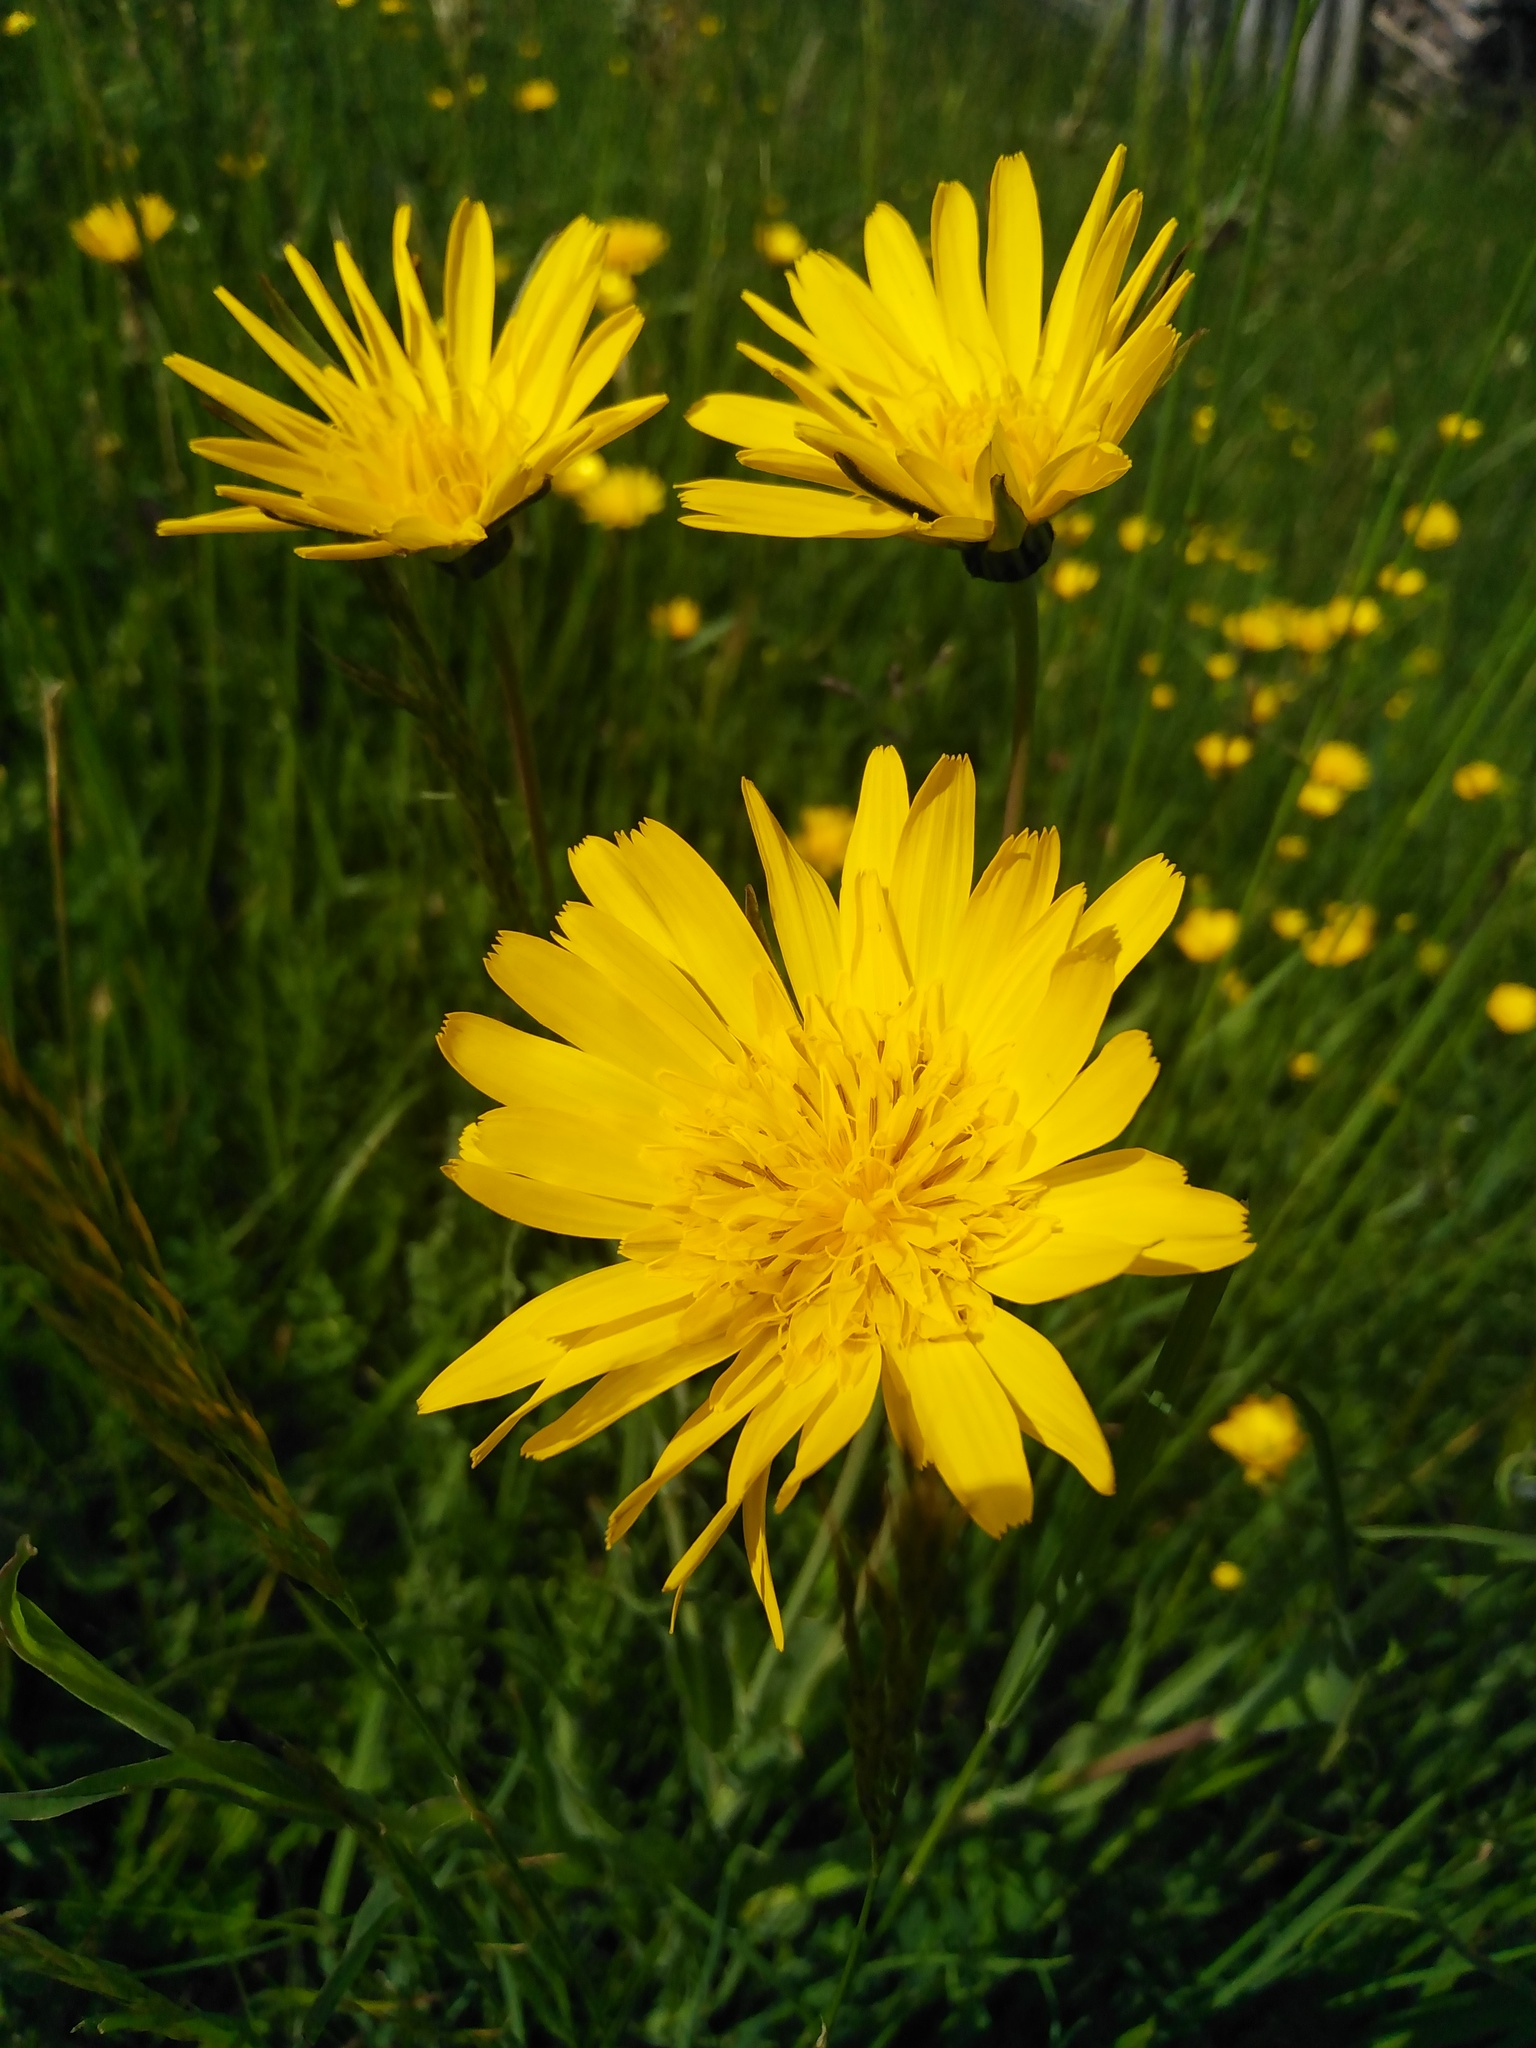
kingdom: Plantae
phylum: Tracheophyta
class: Magnoliopsida
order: Asterales
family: Asteraceae
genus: Tragopogon
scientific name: Tragopogon orientalis
